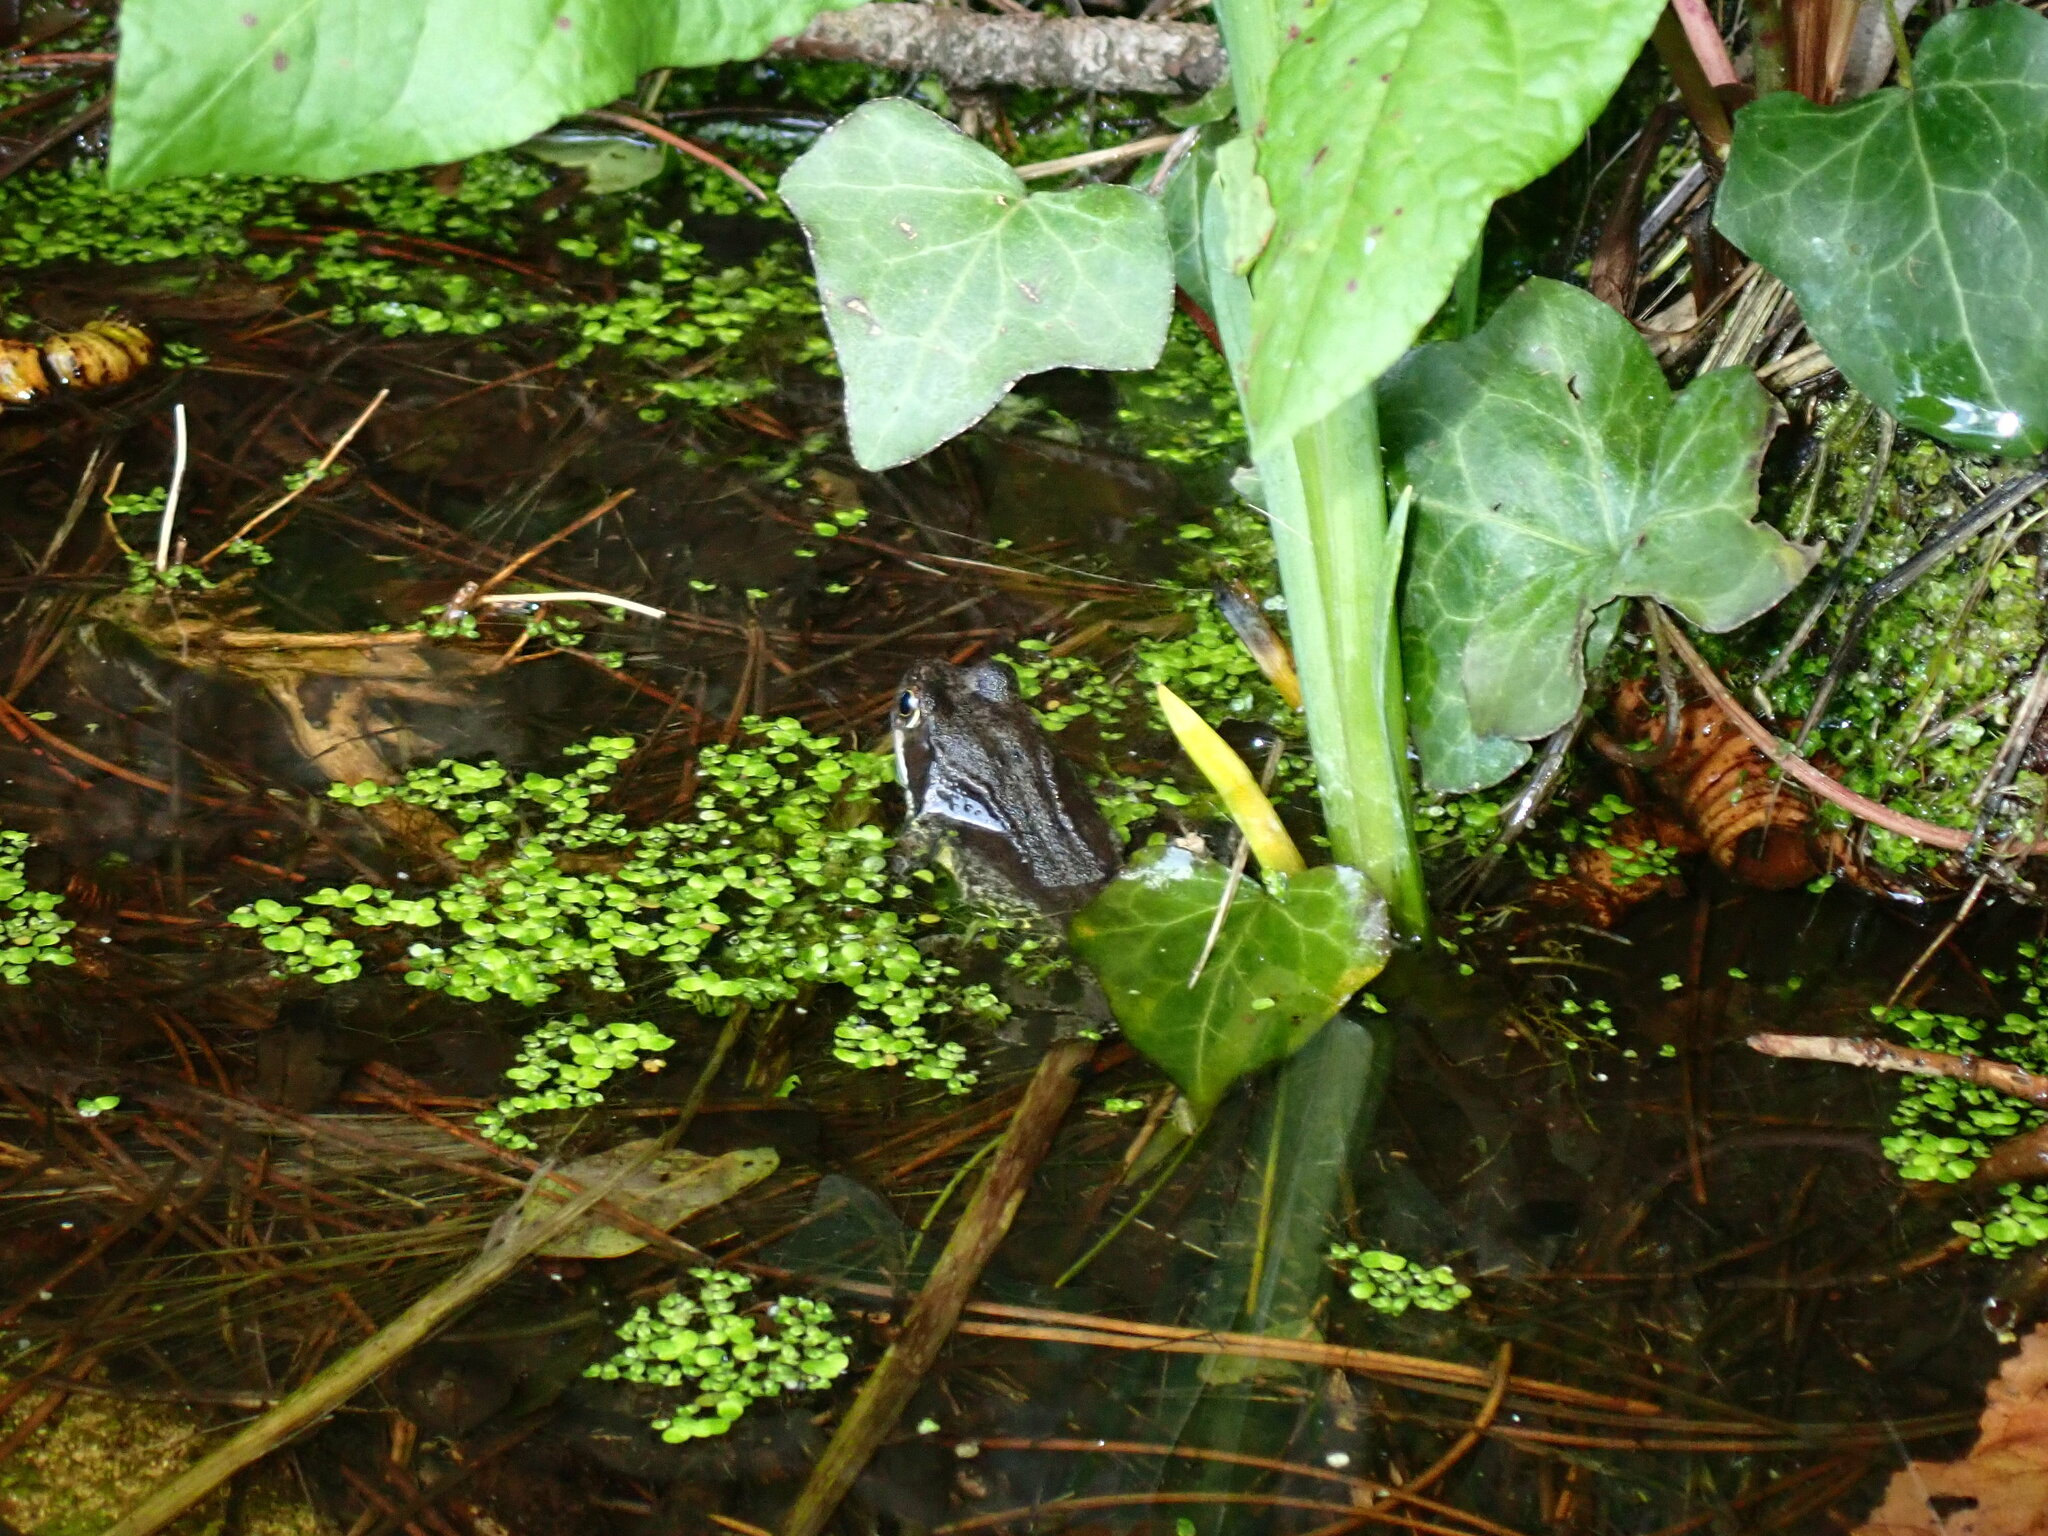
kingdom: Animalia
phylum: Chordata
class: Amphibia
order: Anura
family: Ranidae
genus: Rana
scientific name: Rana temporaria
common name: Common frog
